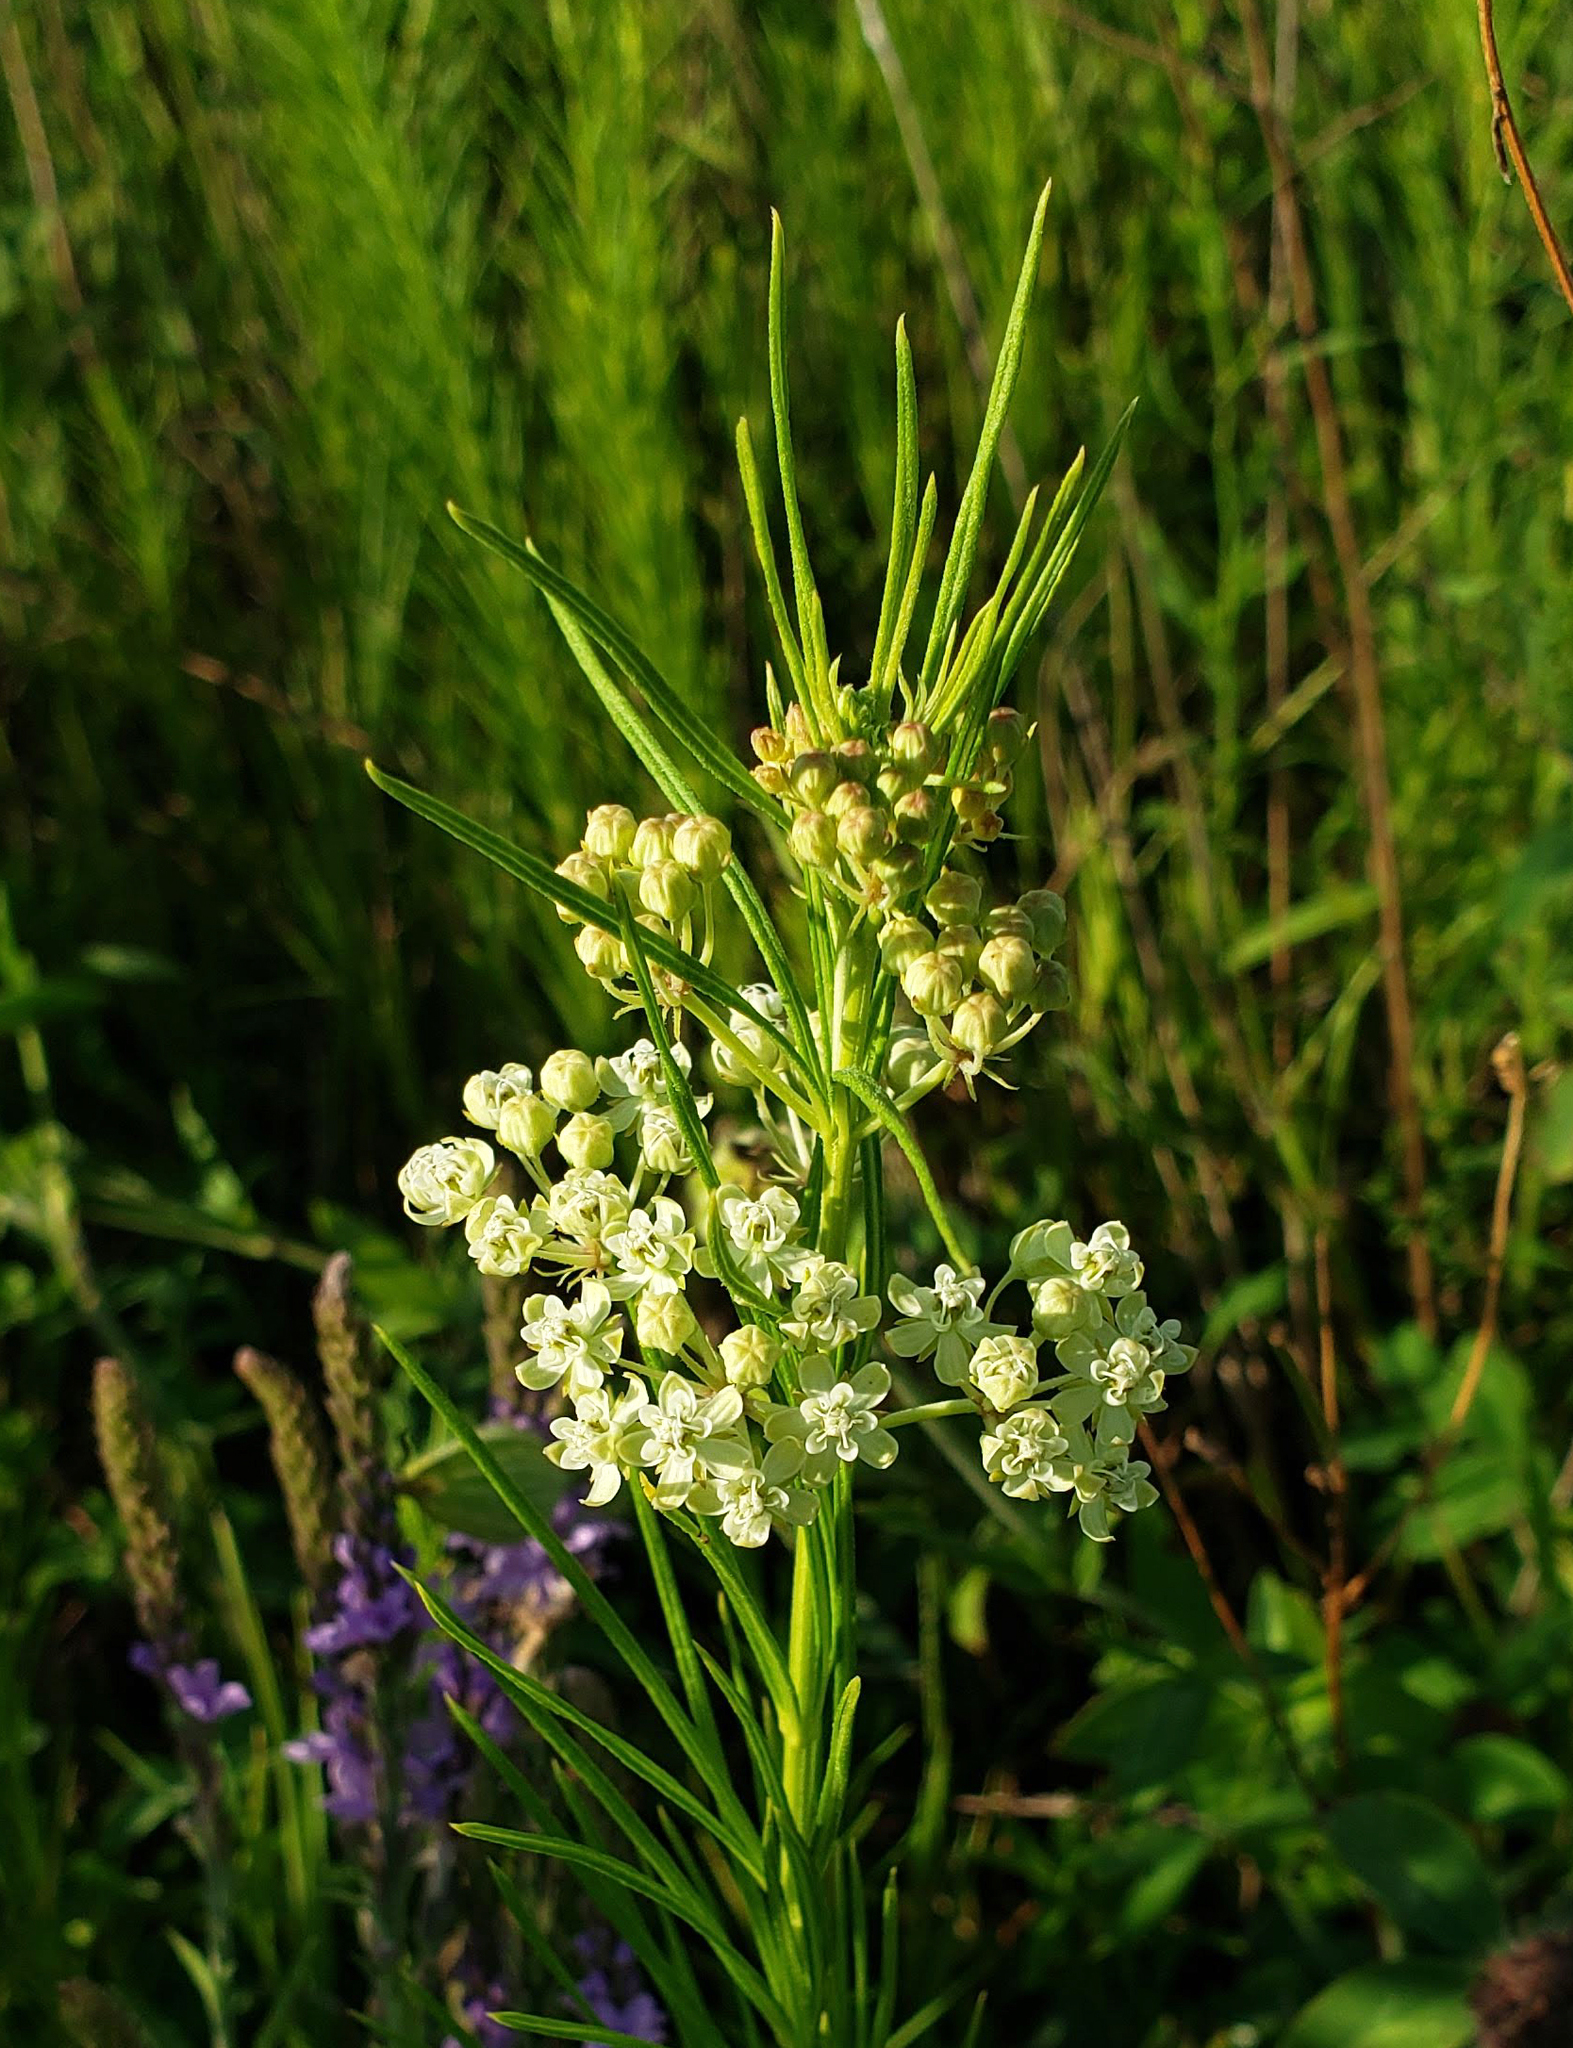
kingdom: Plantae
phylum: Tracheophyta
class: Magnoliopsida
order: Gentianales
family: Apocynaceae
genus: Asclepias
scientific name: Asclepias verticillata
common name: Eastern whorled milkweed
